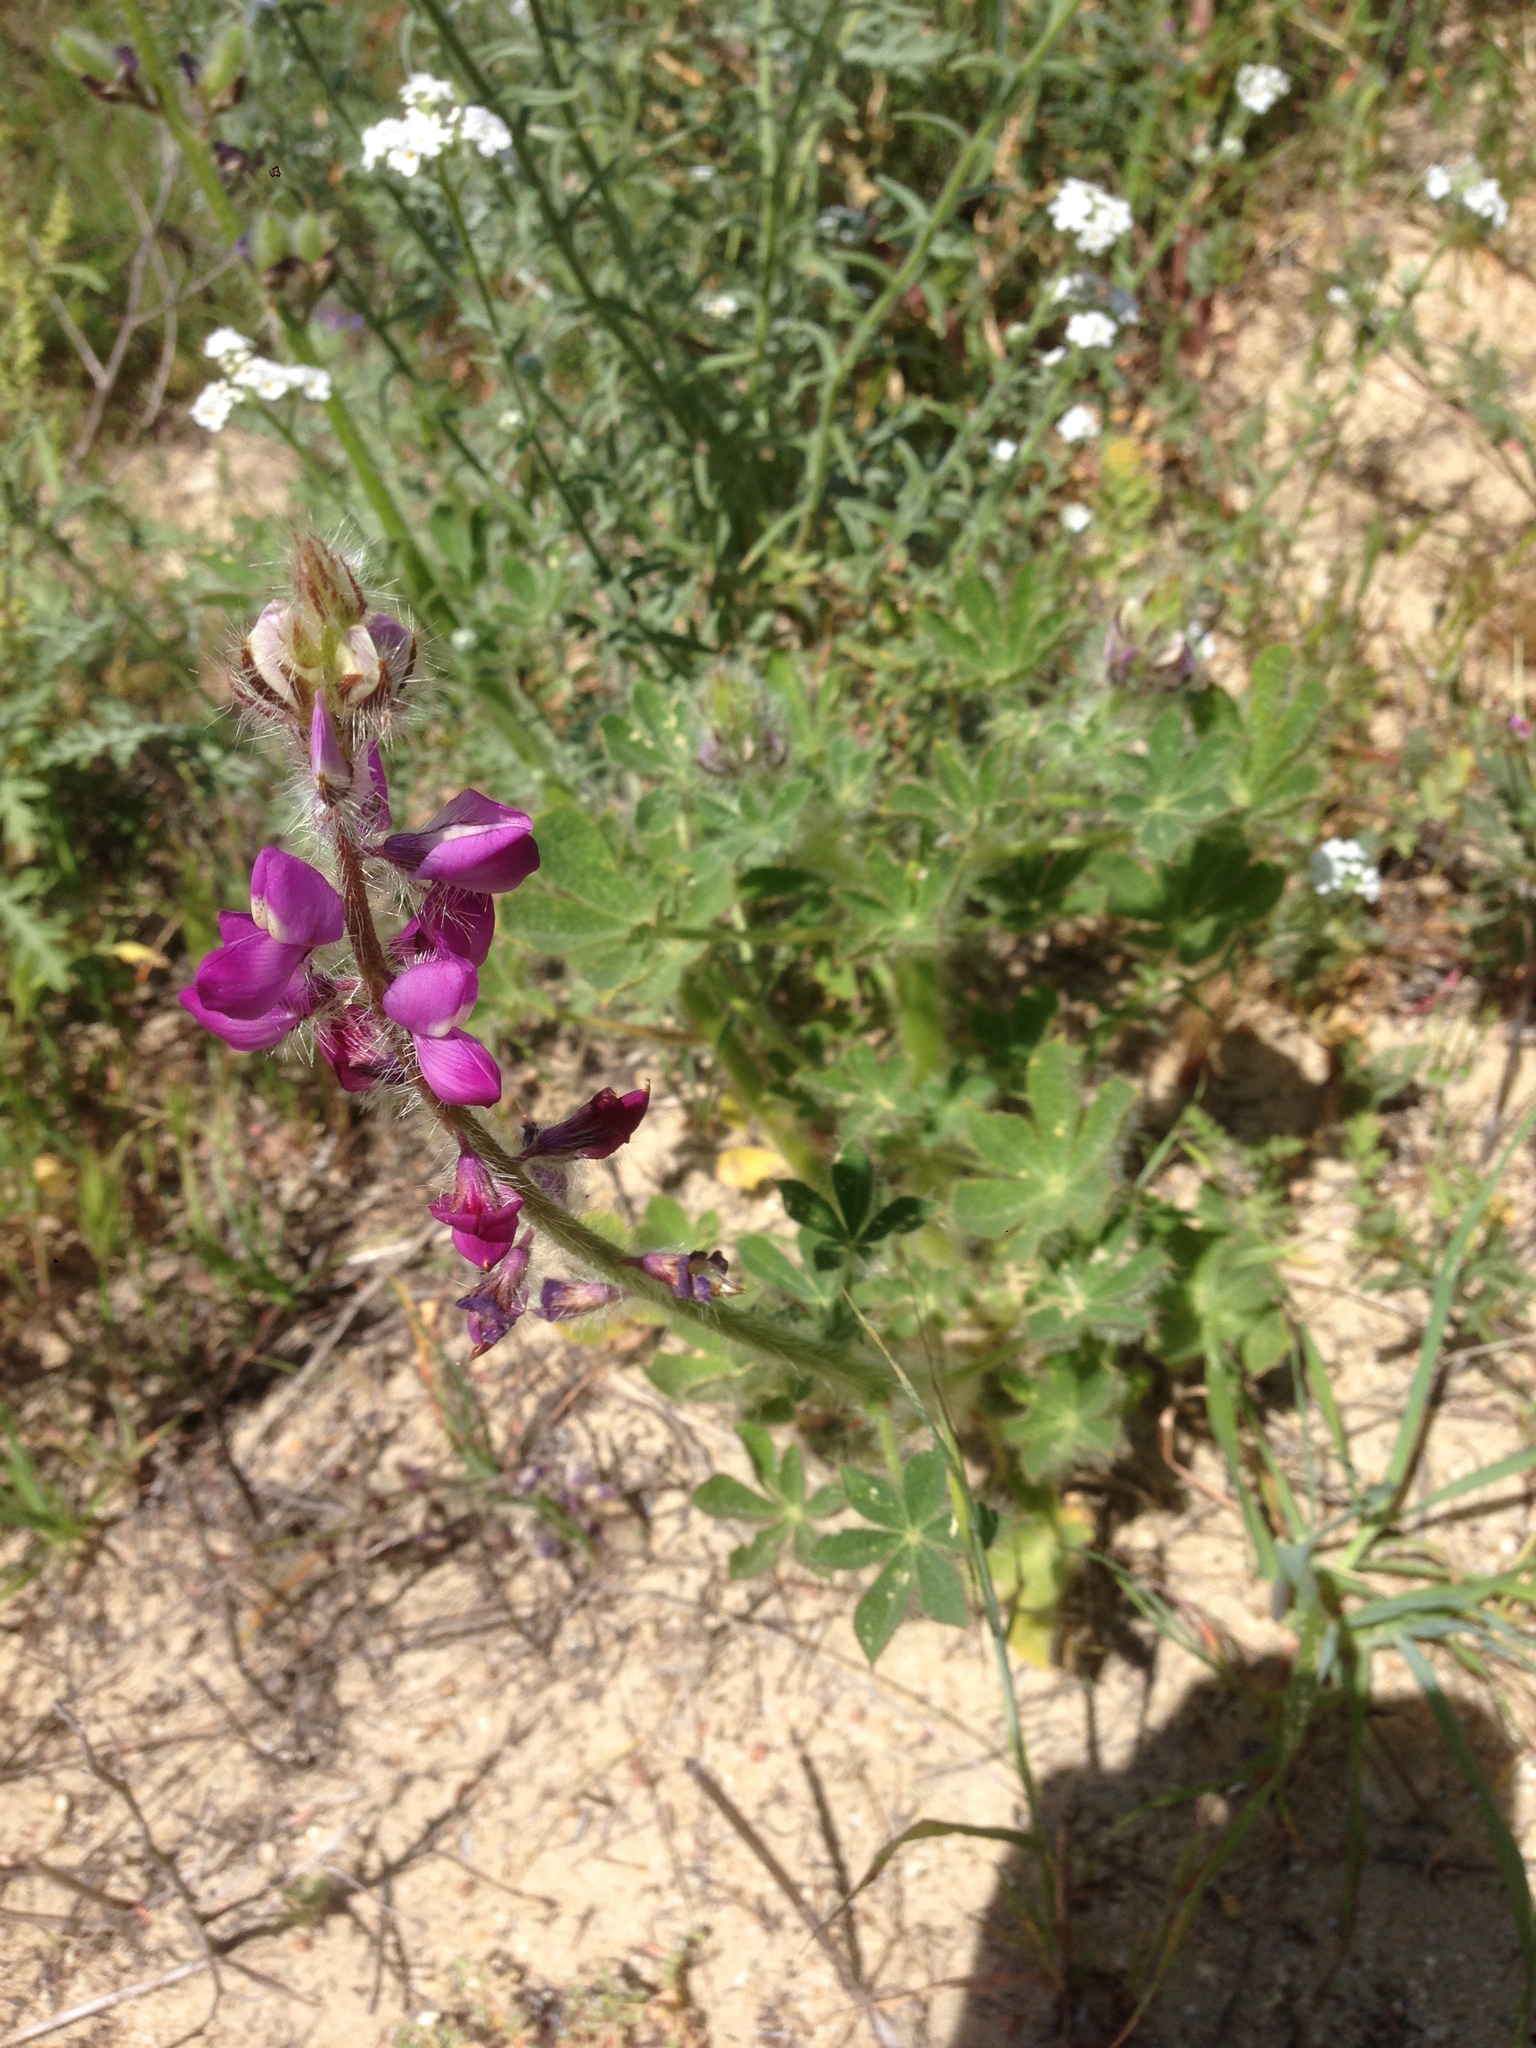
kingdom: Plantae
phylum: Tracheophyta
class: Magnoliopsida
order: Fabales
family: Fabaceae
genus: Lupinus
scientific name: Lupinus hirsutissimus
